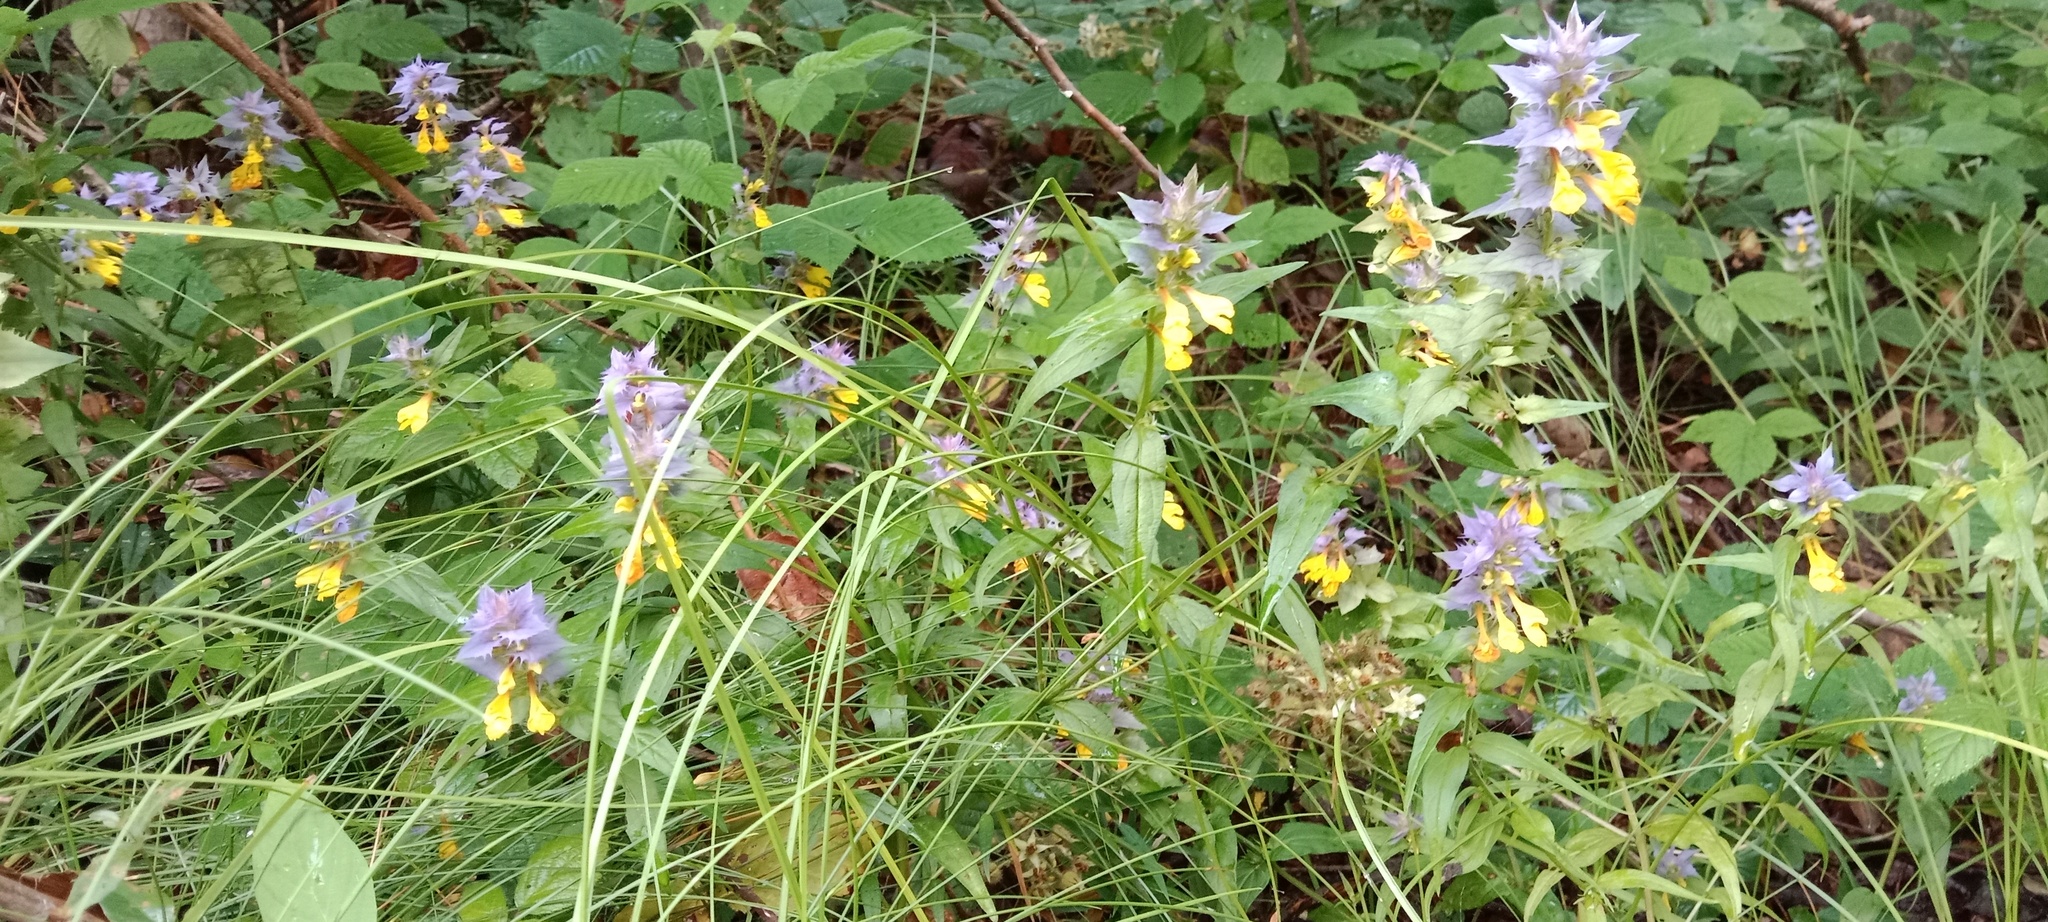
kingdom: Plantae
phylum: Tracheophyta
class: Magnoliopsida
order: Lamiales
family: Orobanchaceae
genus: Melampyrum
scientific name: Melampyrum nemorosum
